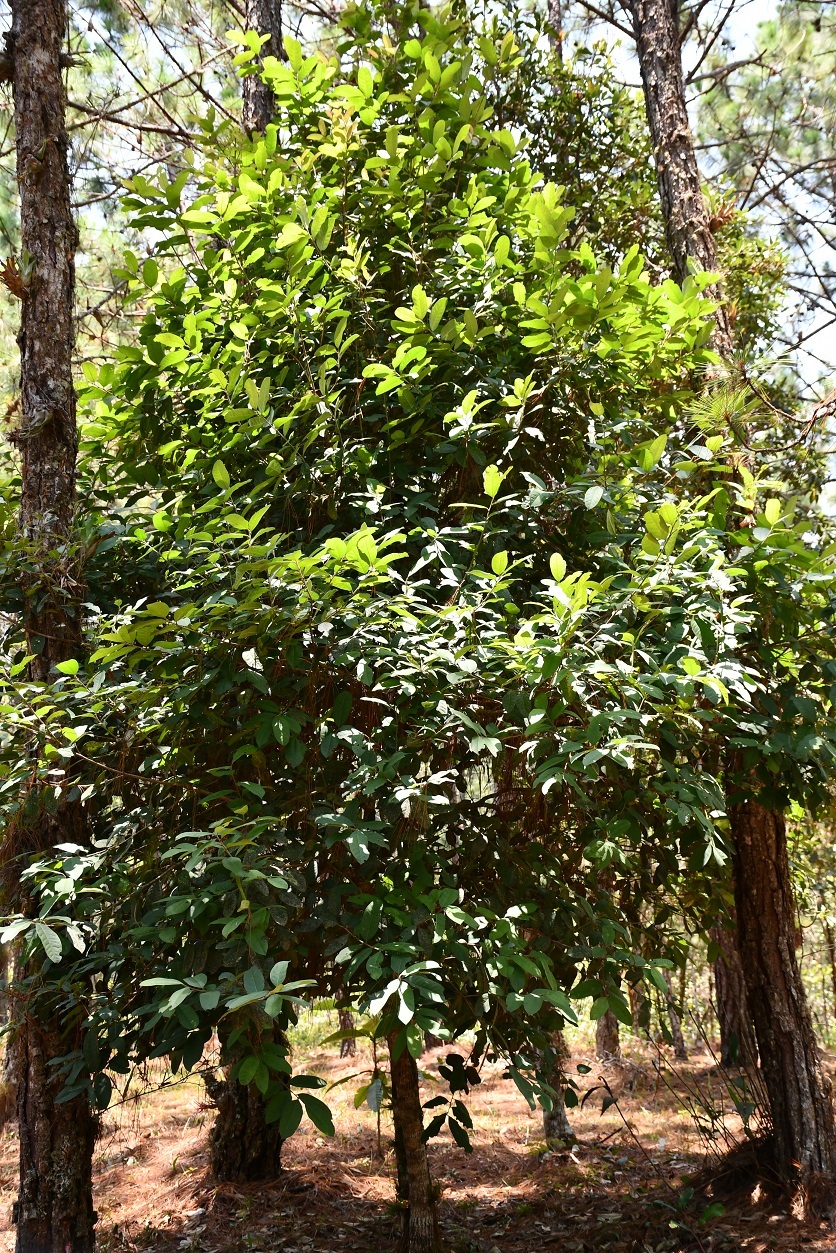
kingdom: Plantae
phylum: Tracheophyta
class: Magnoliopsida
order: Aquifoliales
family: Aquifoliaceae
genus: Ilex
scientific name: Ilex brandegeeana
